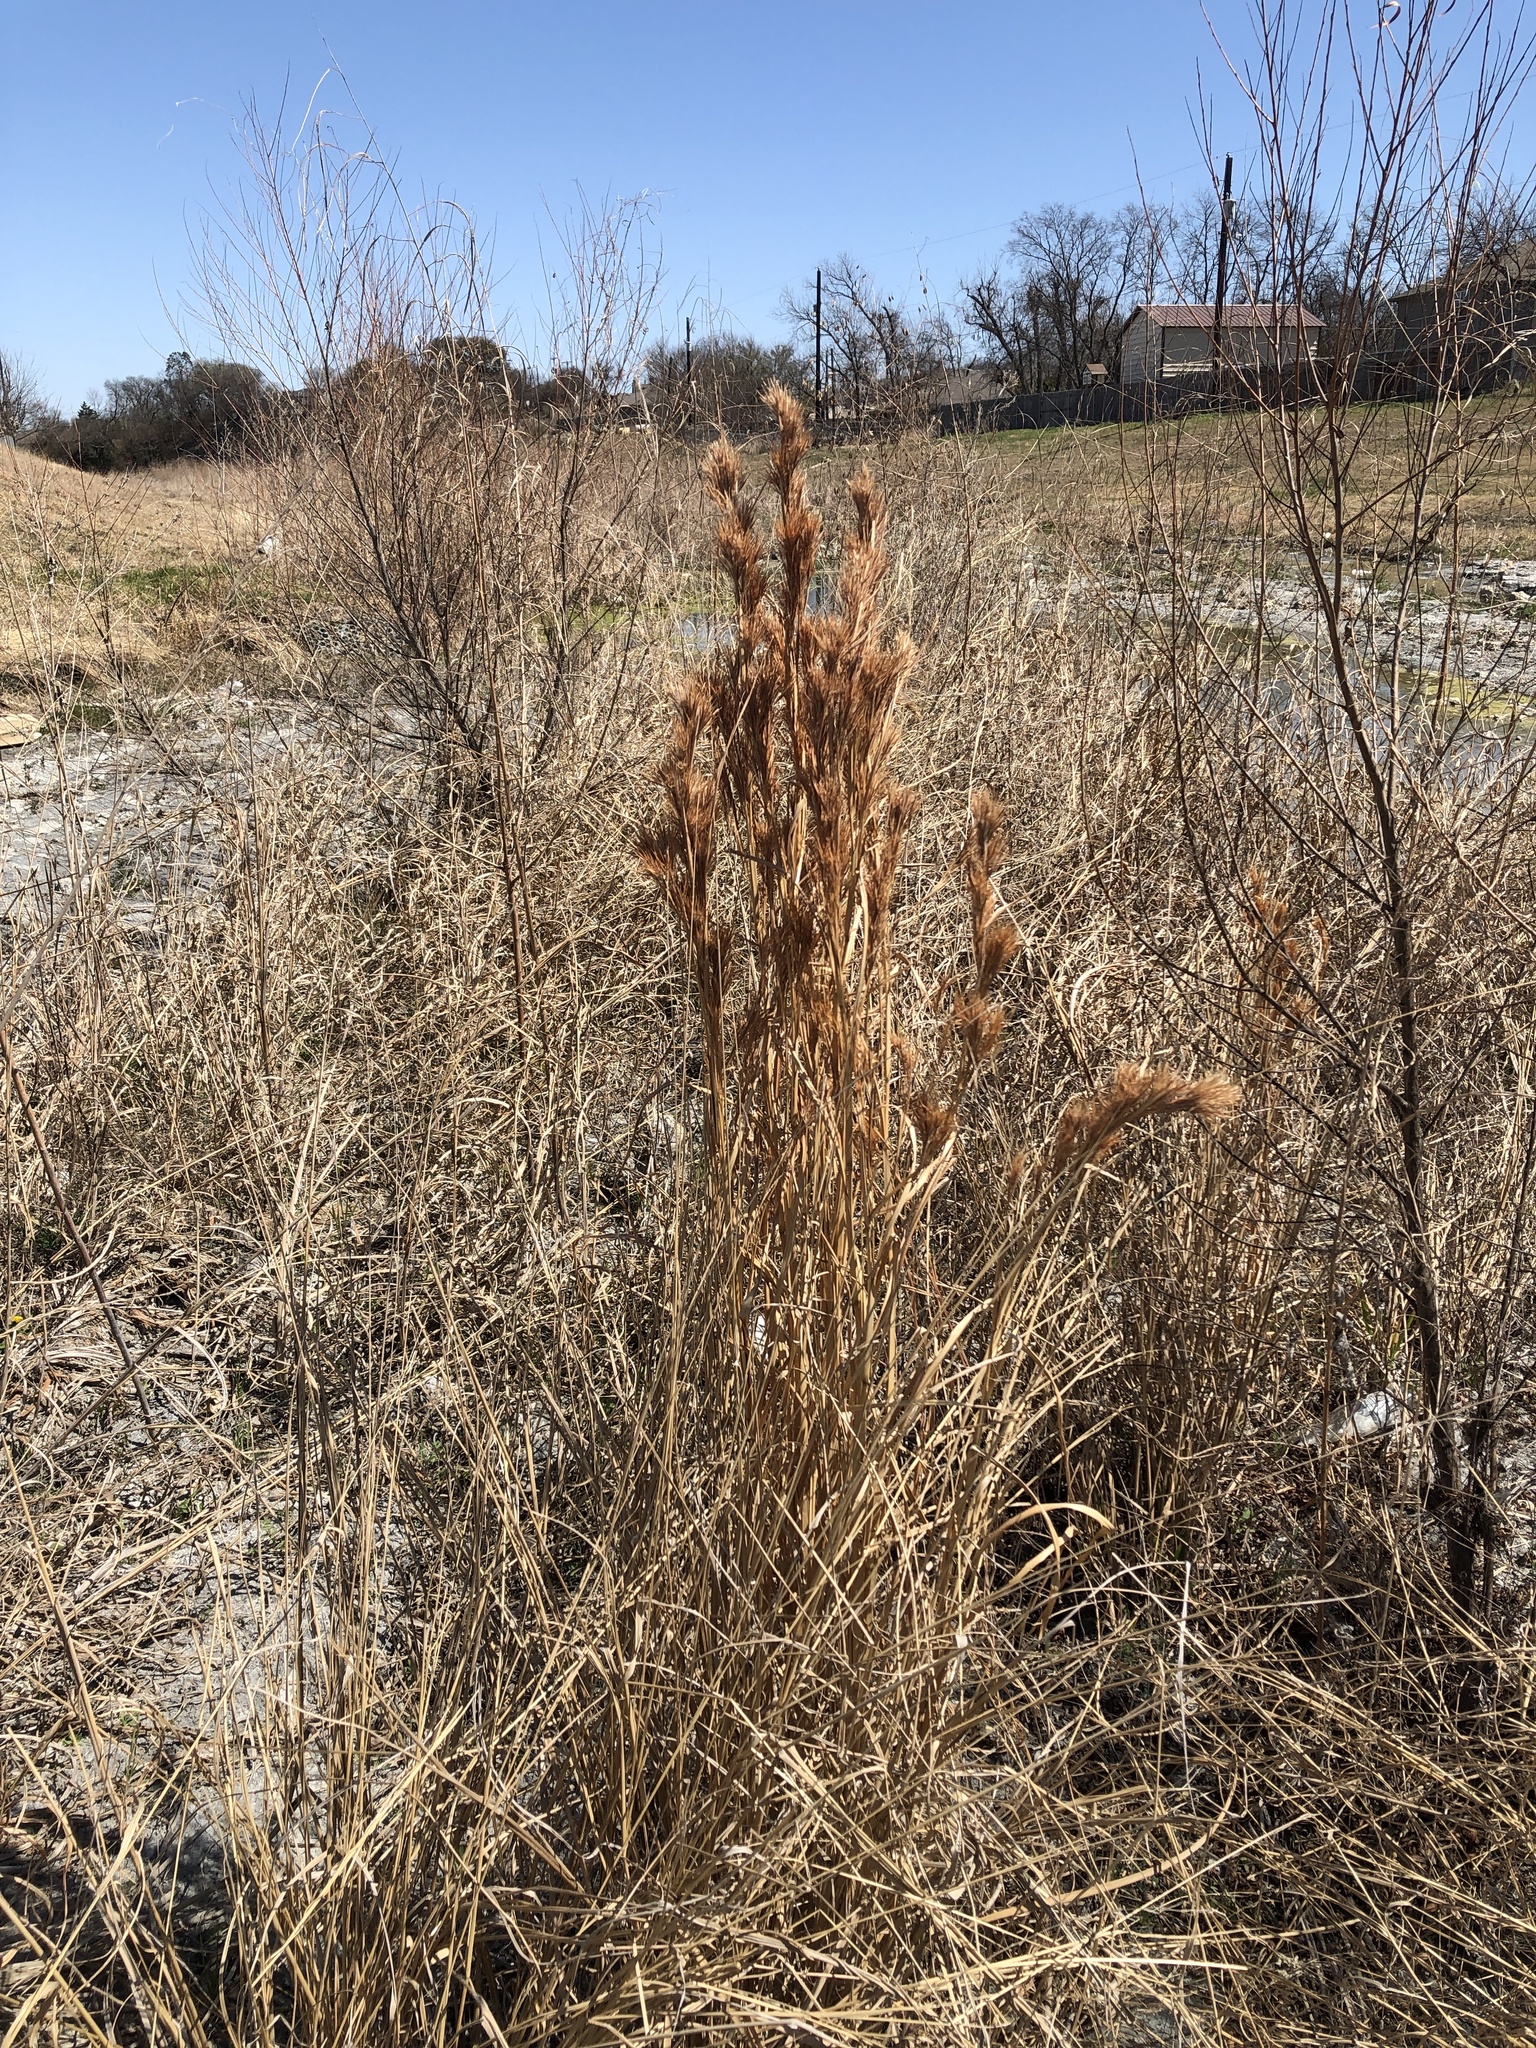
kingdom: Plantae
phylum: Tracheophyta
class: Liliopsida
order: Poales
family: Poaceae
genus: Andropogon
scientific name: Andropogon tenuispatheus
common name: Bushy bluestem
